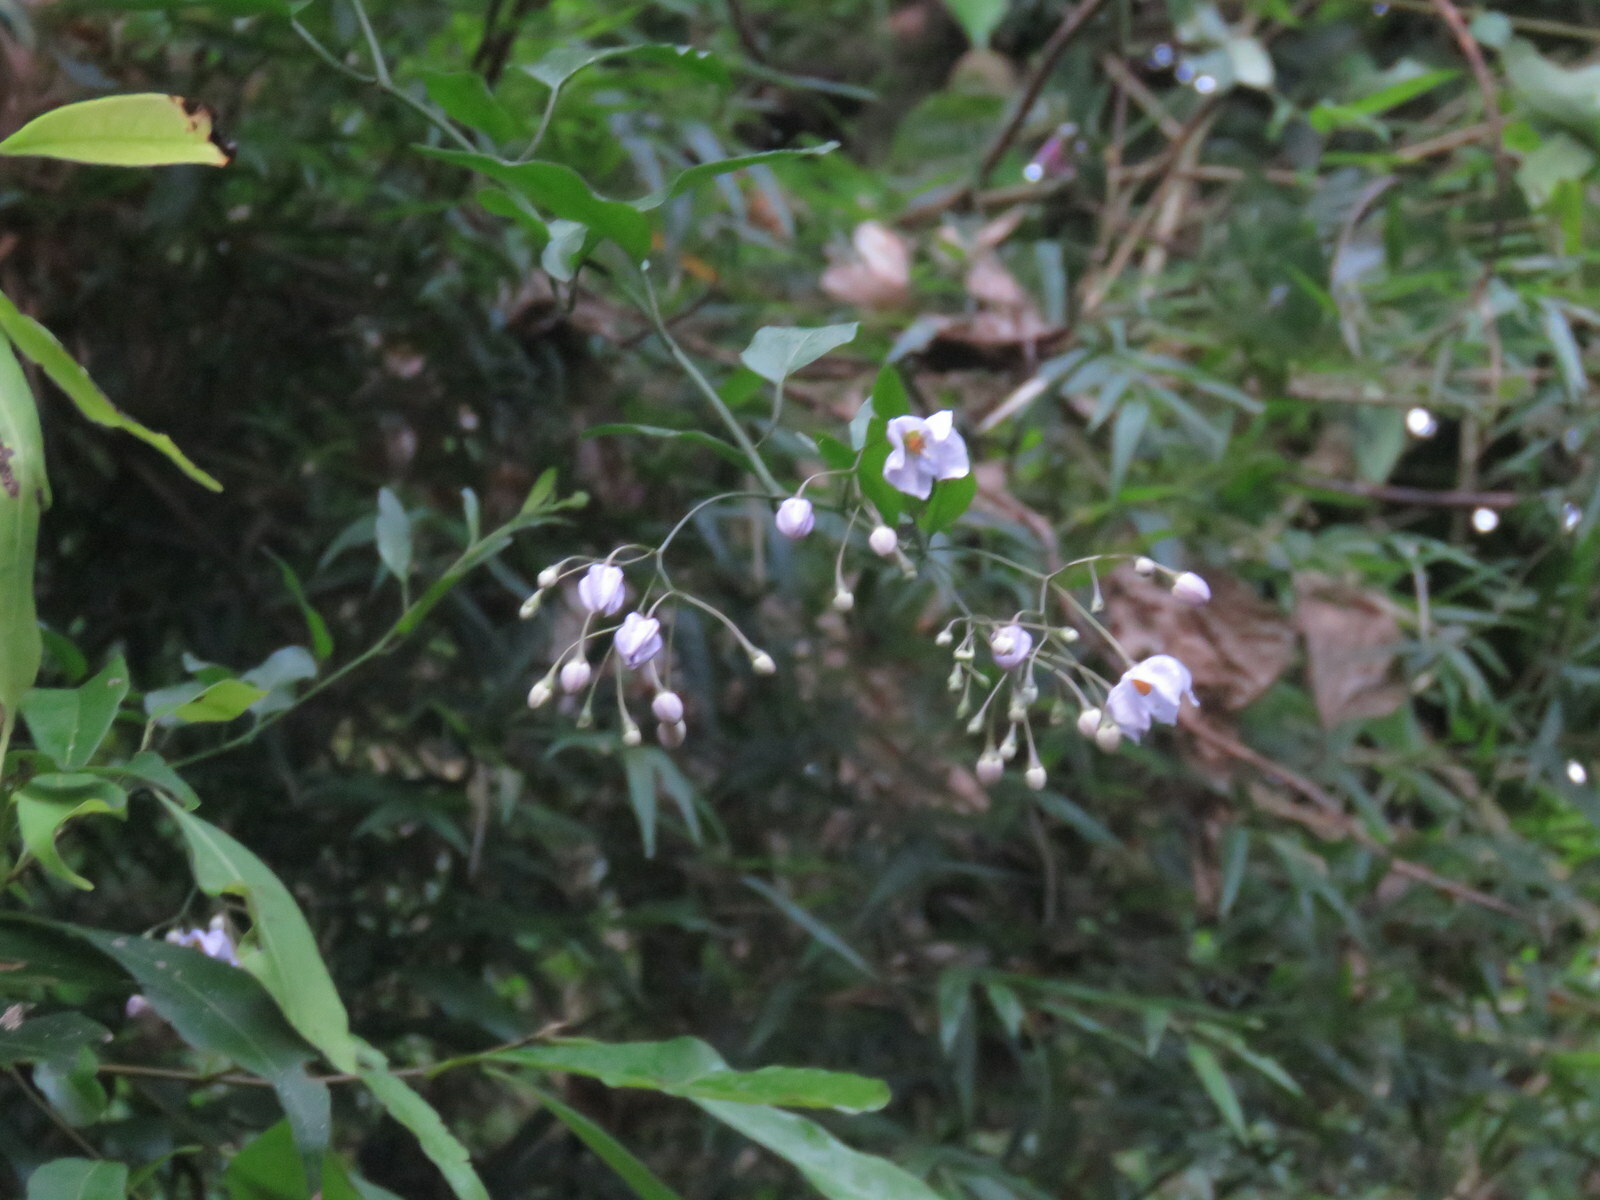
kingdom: Plantae
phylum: Tracheophyta
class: Magnoliopsida
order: Solanales
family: Solanaceae
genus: Solanum
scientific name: Solanum laxum
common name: Nightshade
